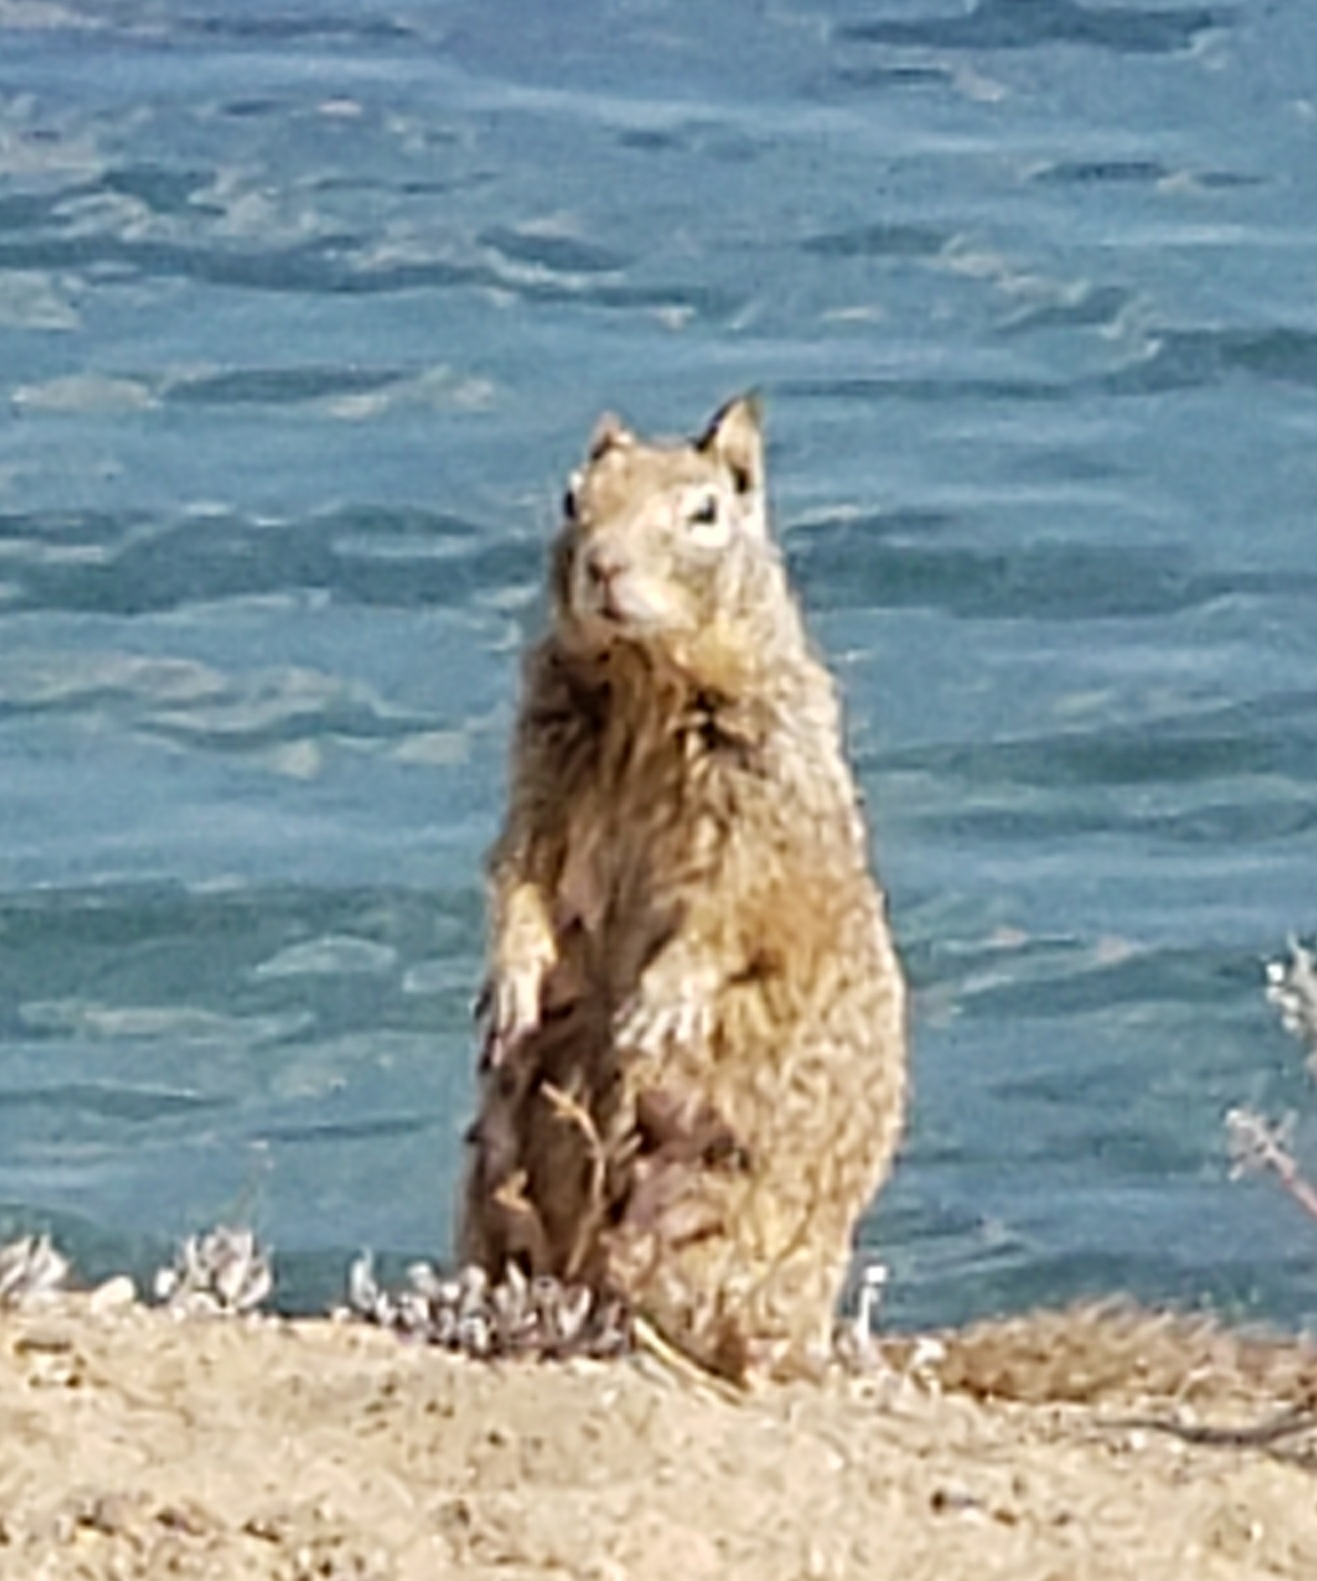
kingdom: Animalia
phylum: Chordata
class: Mammalia
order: Rodentia
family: Sciuridae
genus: Otospermophilus
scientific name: Otospermophilus beecheyi
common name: California ground squirrel
